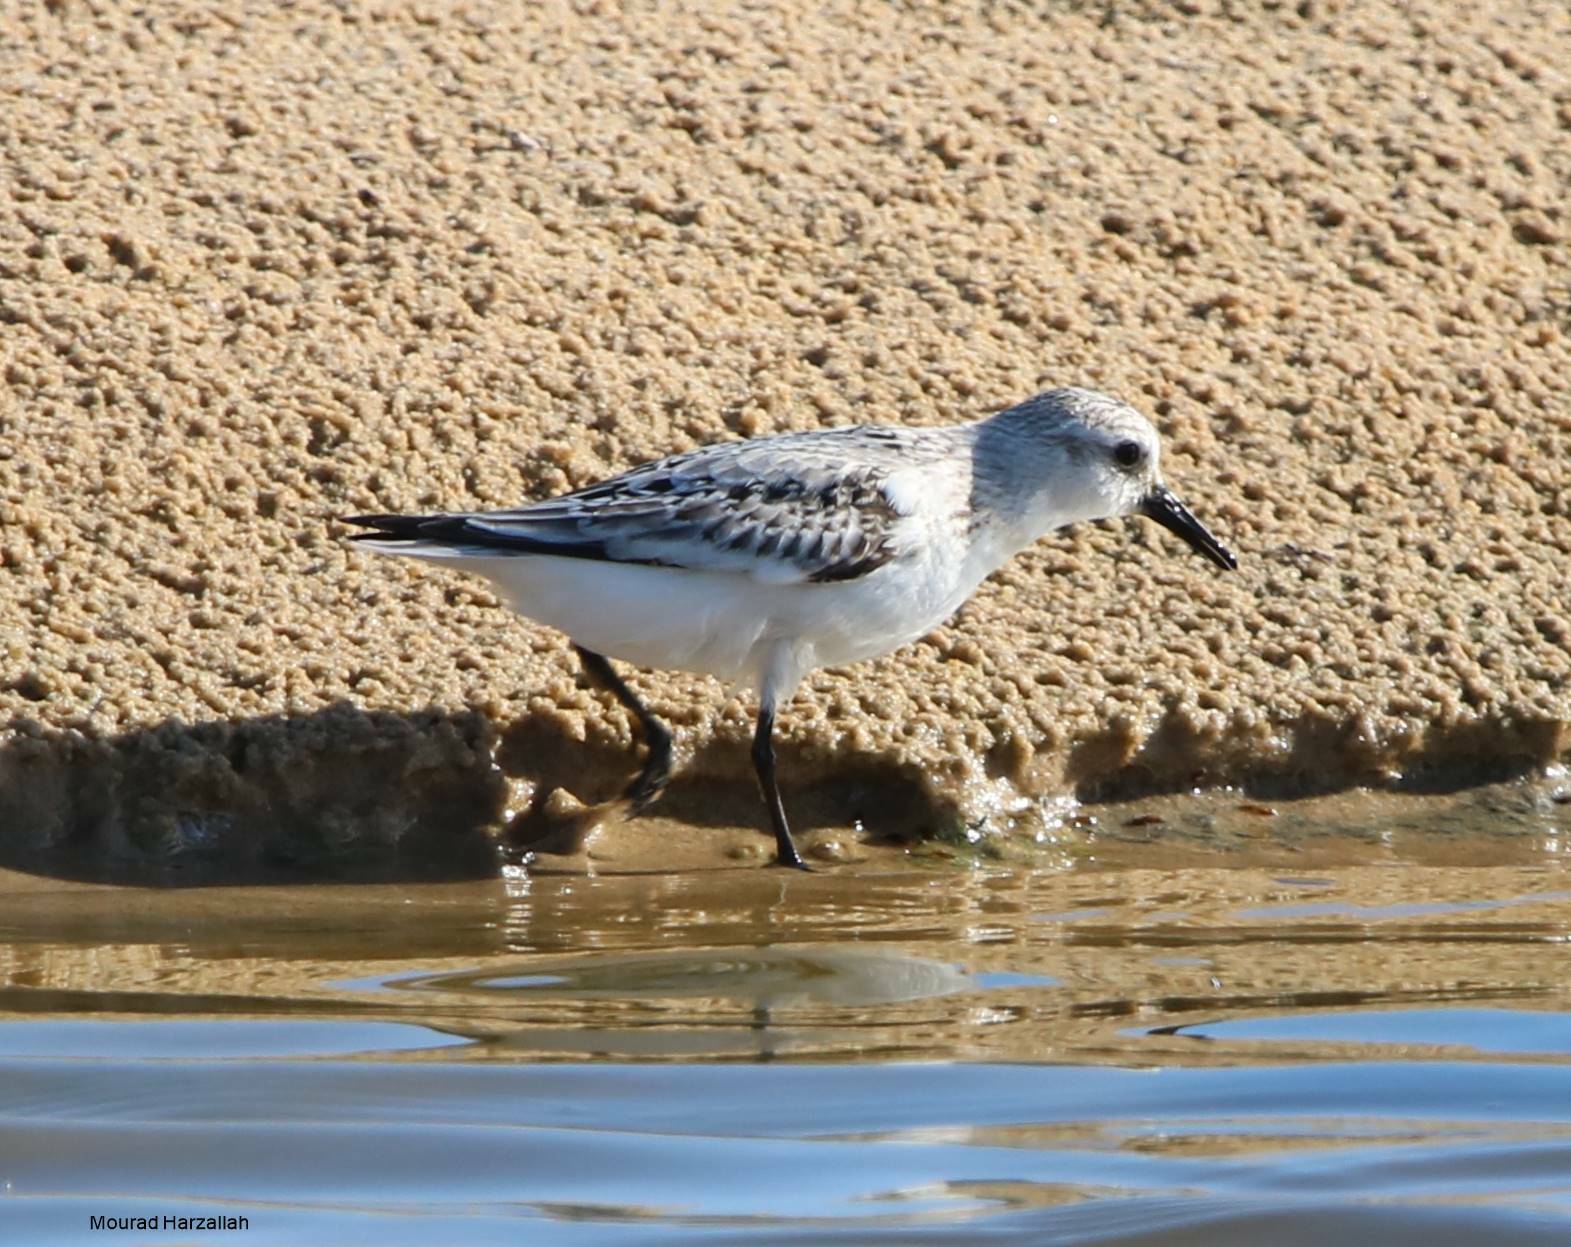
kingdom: Animalia
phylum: Chordata
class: Aves
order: Charadriiformes
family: Scolopacidae
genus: Calidris
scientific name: Calidris alba
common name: Sanderling
